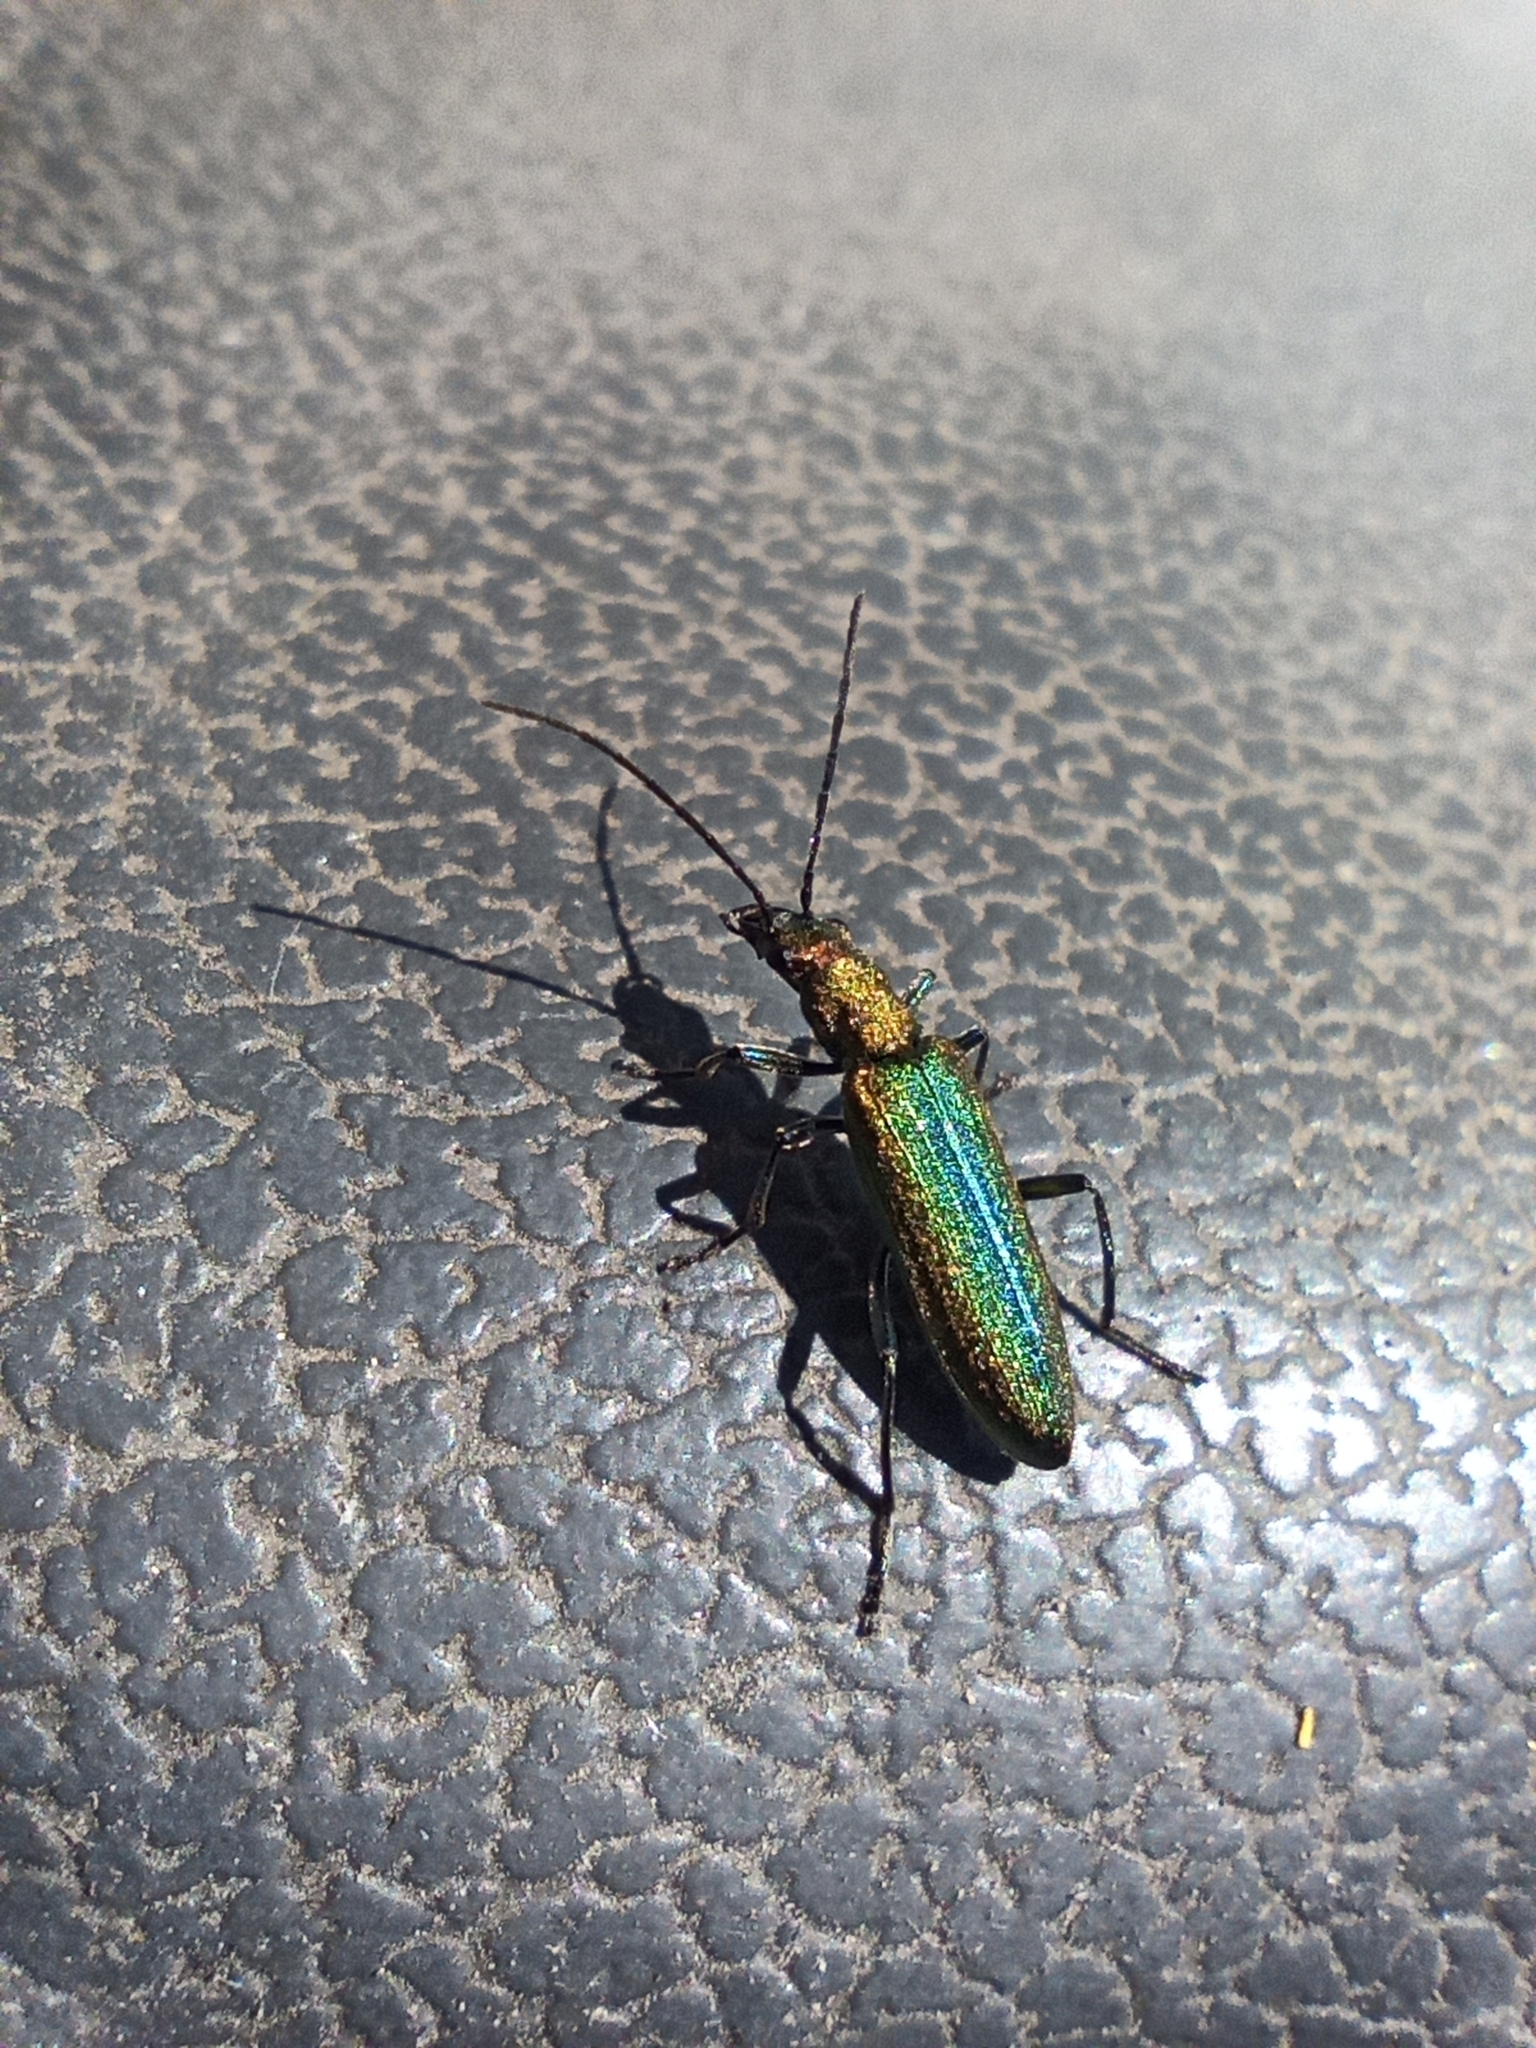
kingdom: Animalia
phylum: Arthropoda
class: Insecta
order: Coleoptera
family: Oedemeridae
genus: Chrysanthia
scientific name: Chrysanthia reitteri
